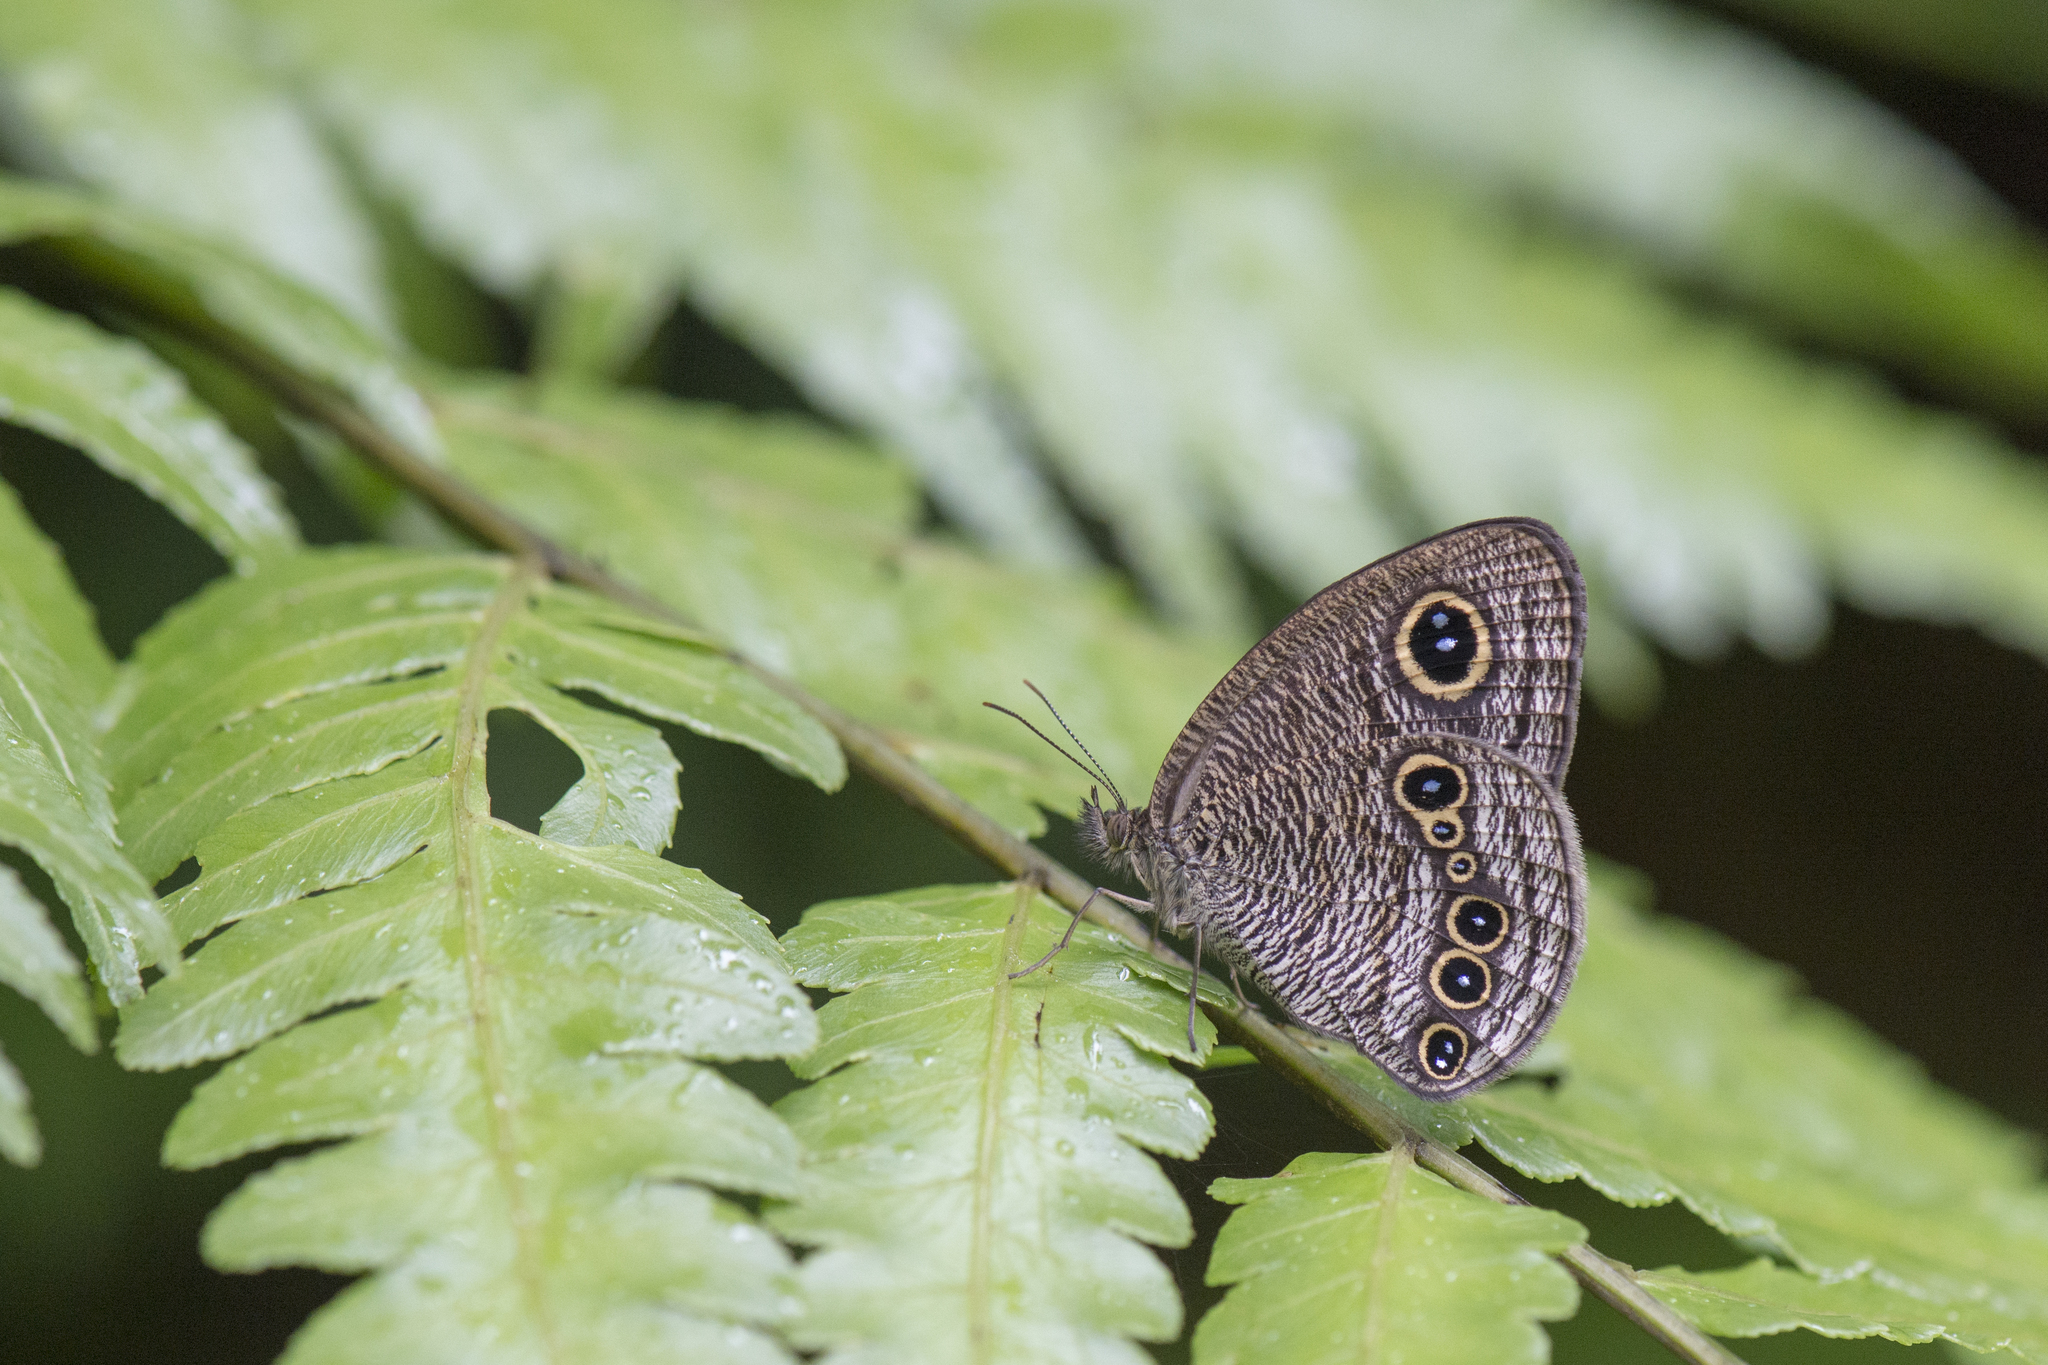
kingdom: Animalia
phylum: Arthropoda
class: Insecta
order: Lepidoptera
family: Nymphalidae
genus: Ypthima
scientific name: Ypthima conjuncta
